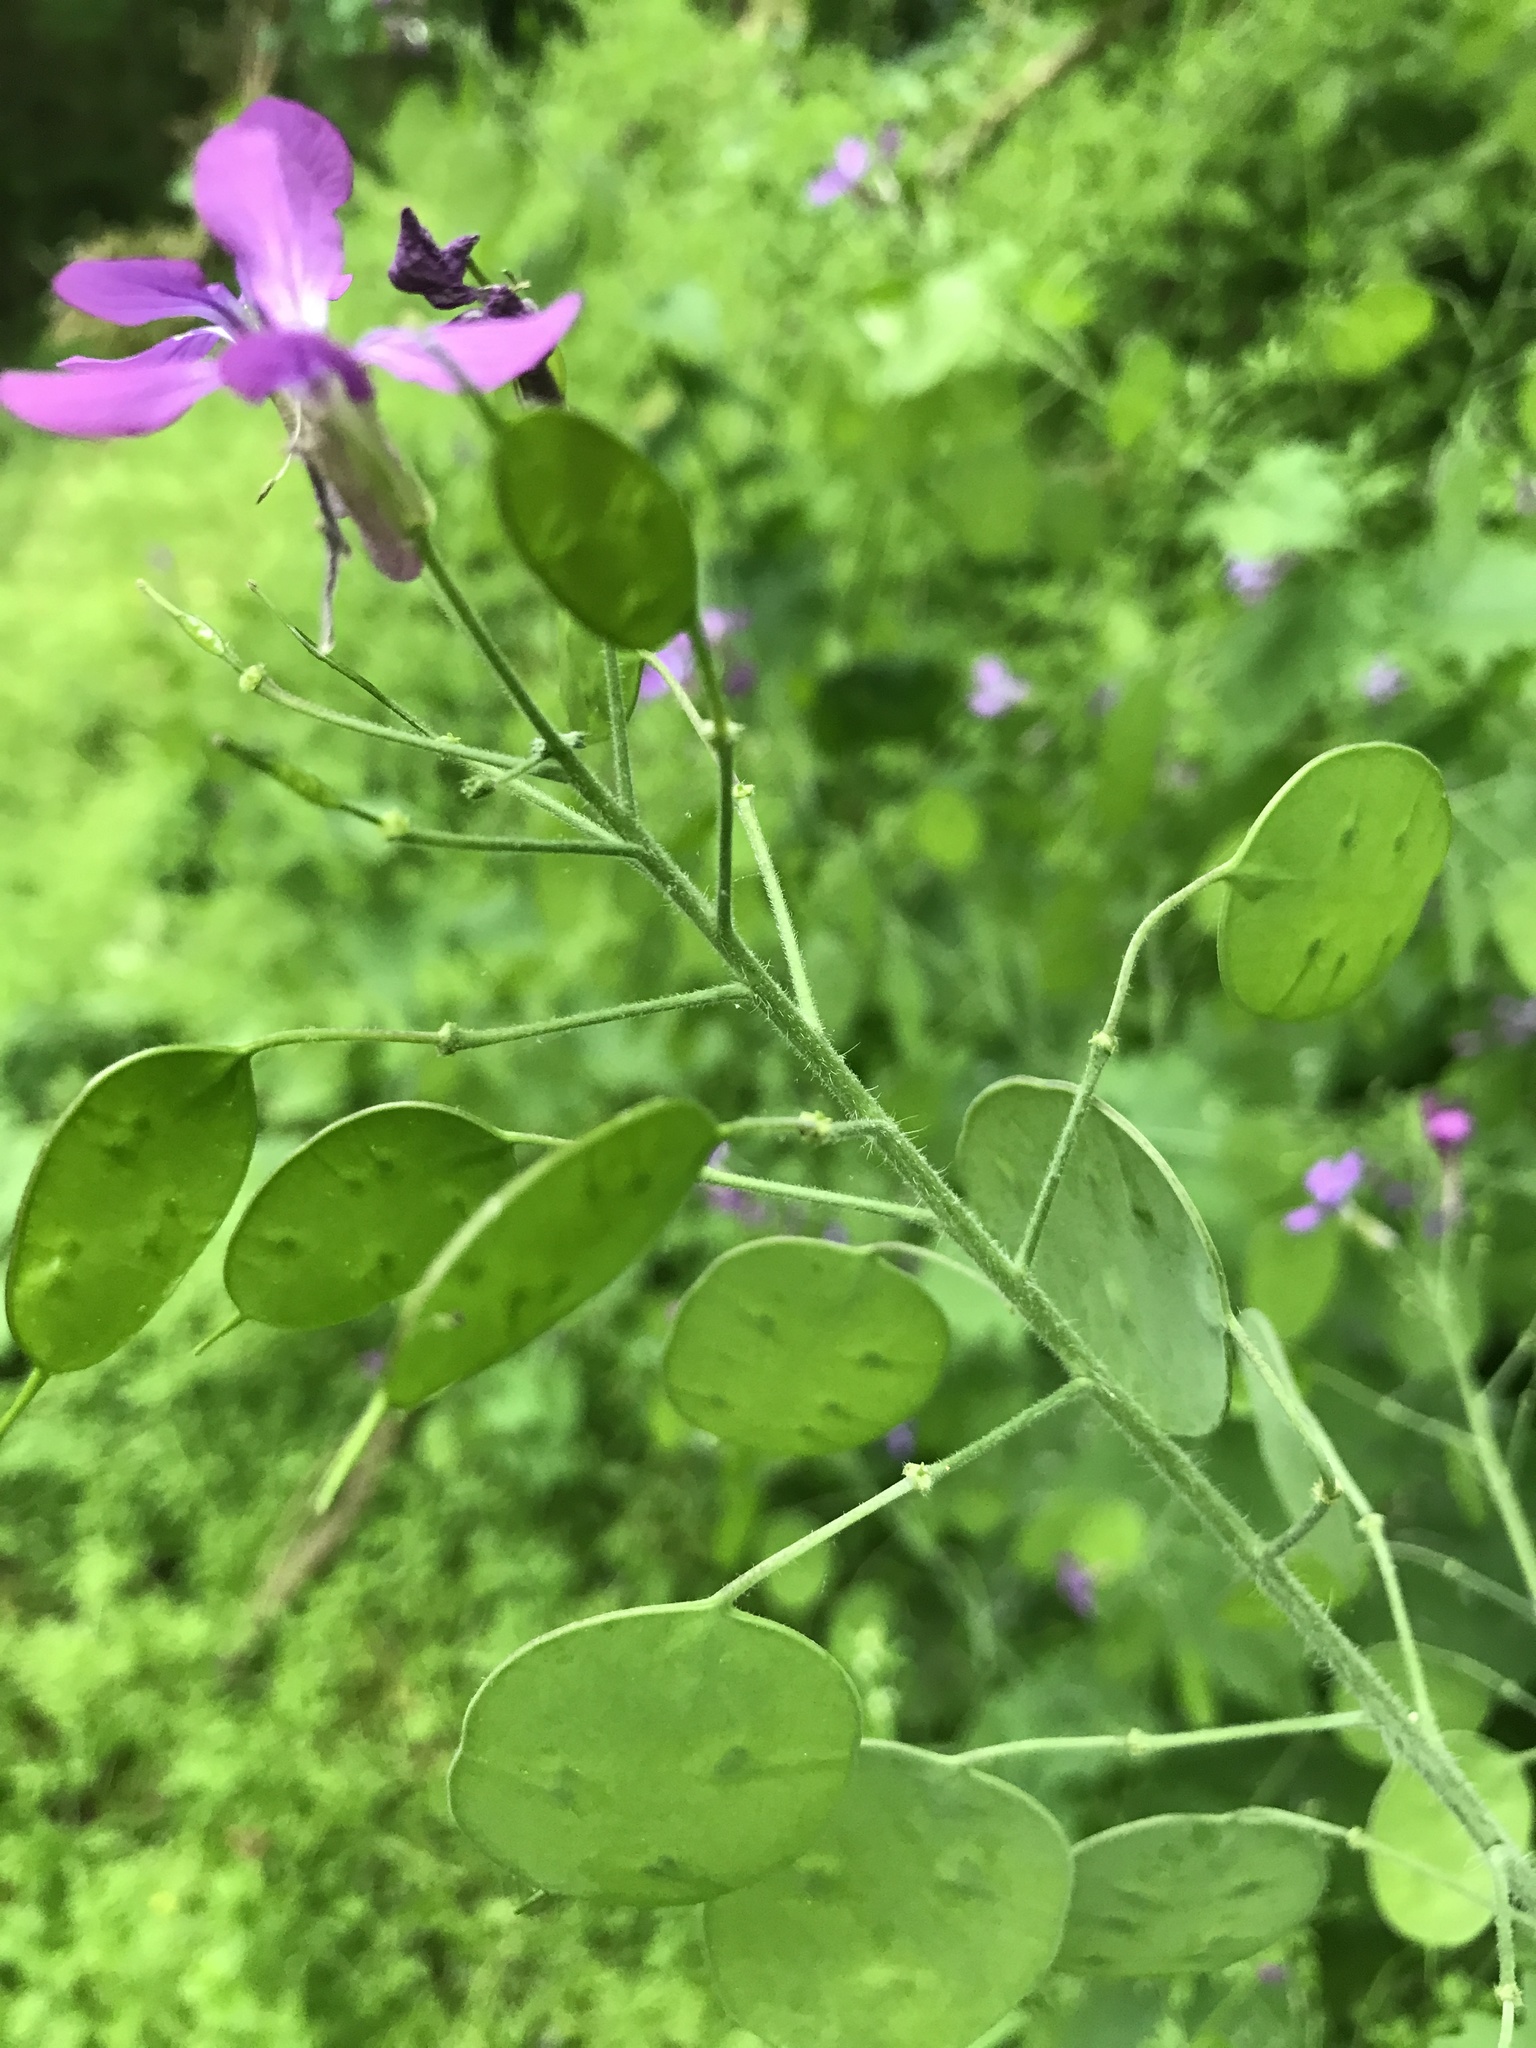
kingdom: Plantae
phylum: Tracheophyta
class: Magnoliopsida
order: Brassicales
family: Brassicaceae
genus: Lunaria
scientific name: Lunaria annua
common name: Honesty
